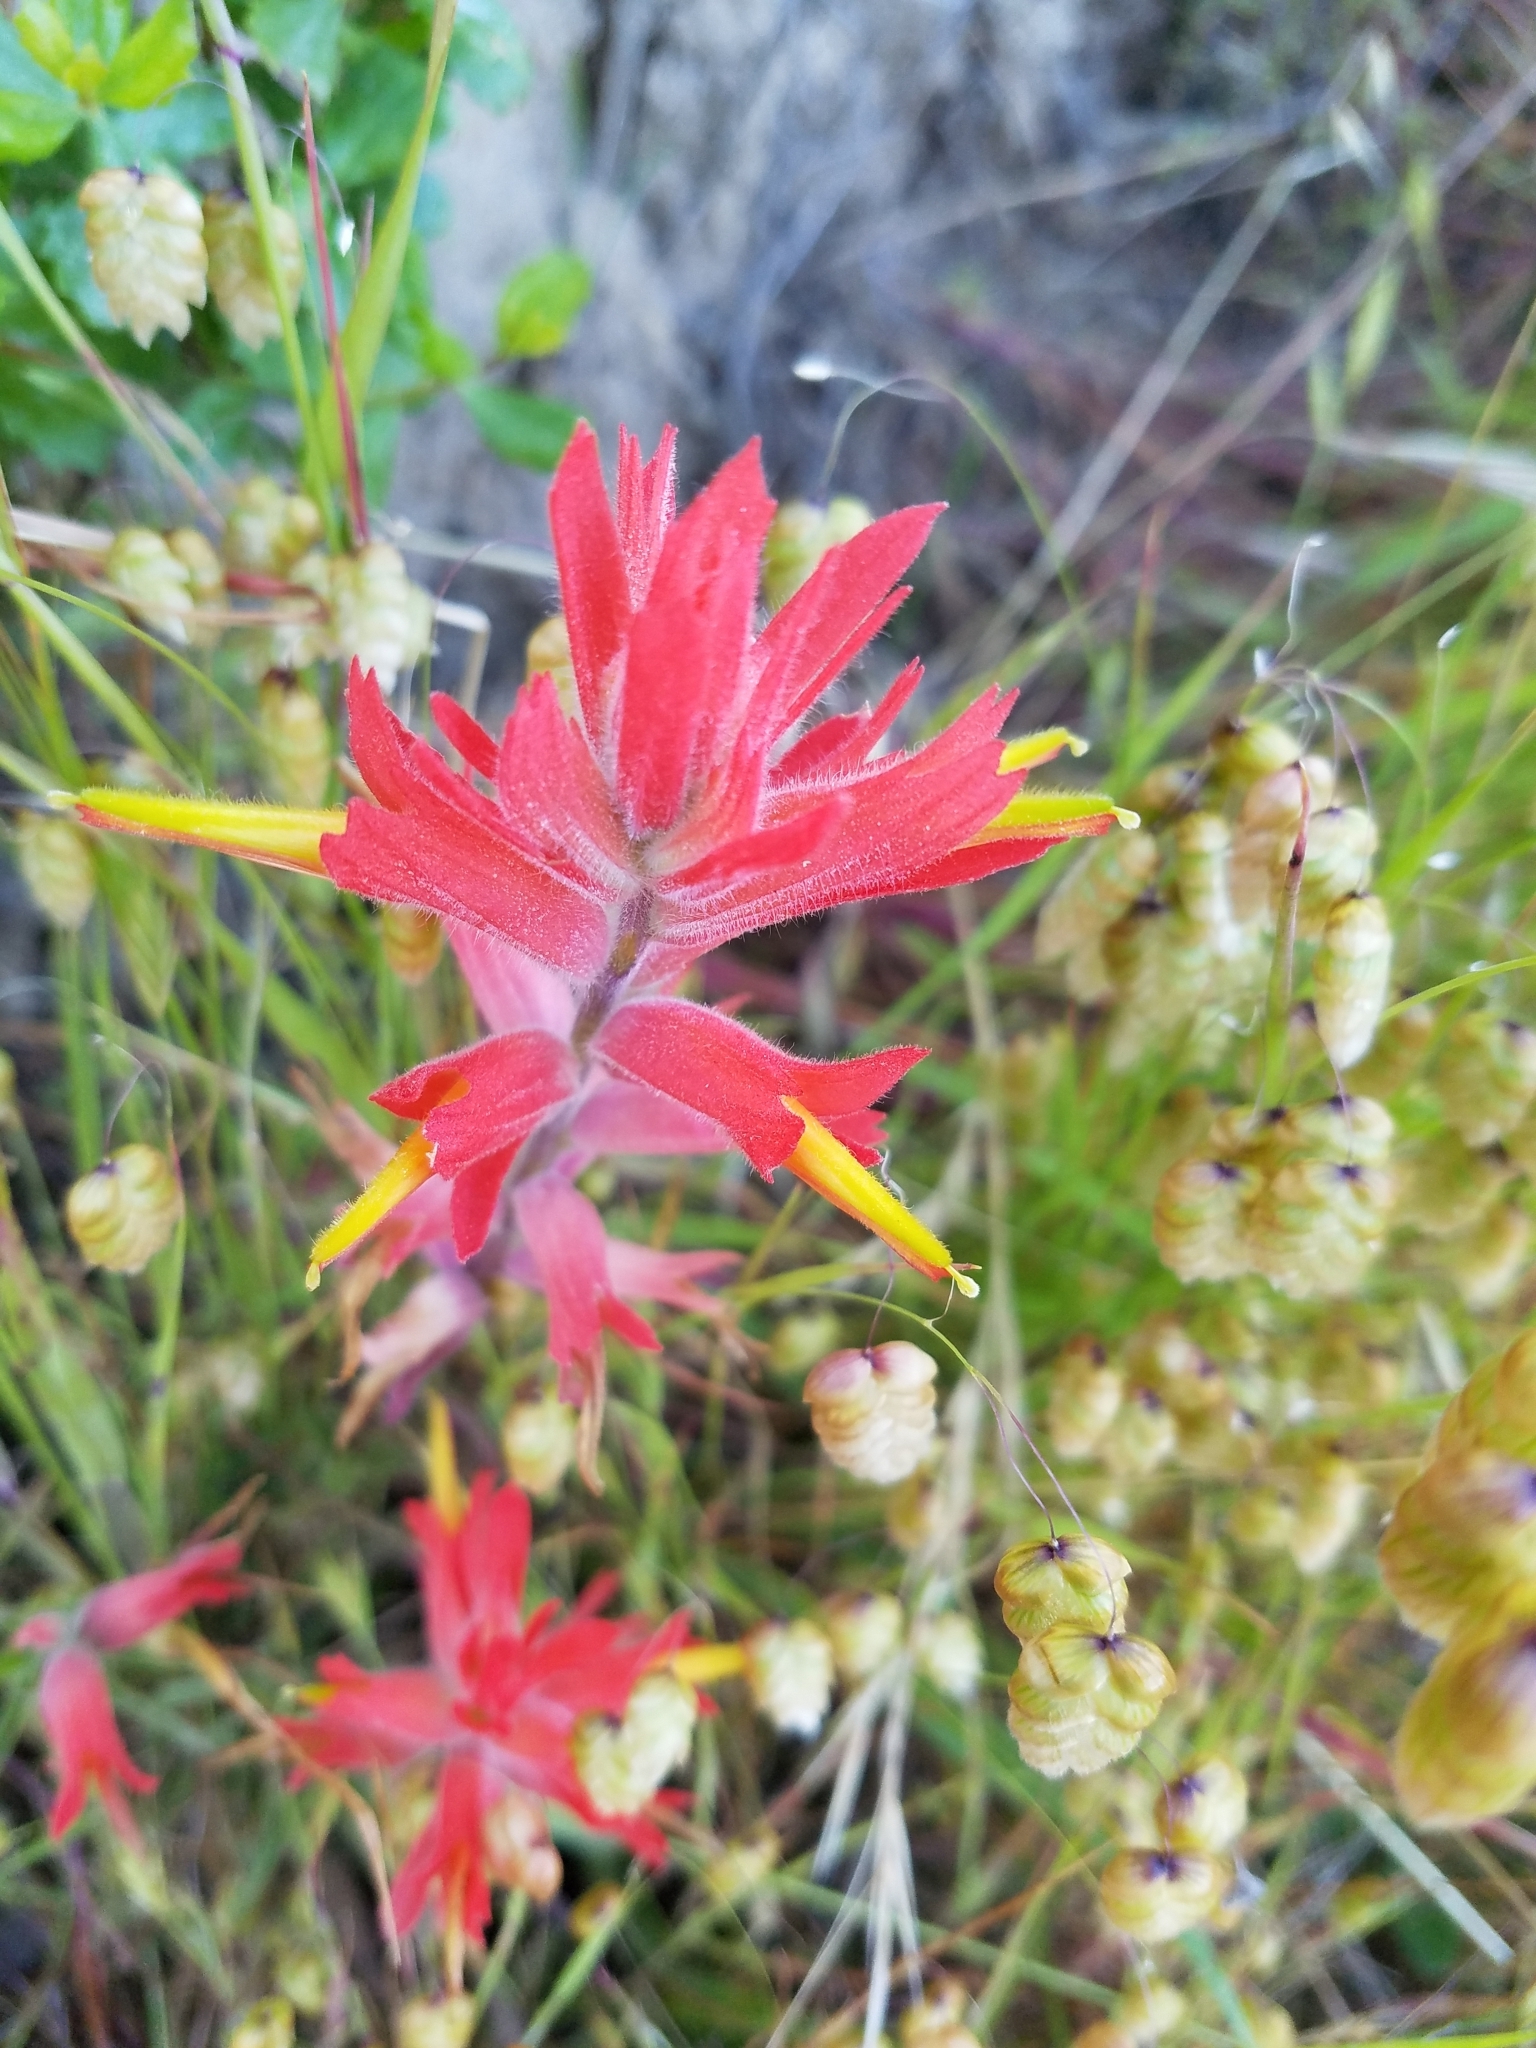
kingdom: Plantae
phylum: Tracheophyta
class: Magnoliopsida
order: Lamiales
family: Orobanchaceae
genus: Castilleja
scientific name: Castilleja subinclusa
